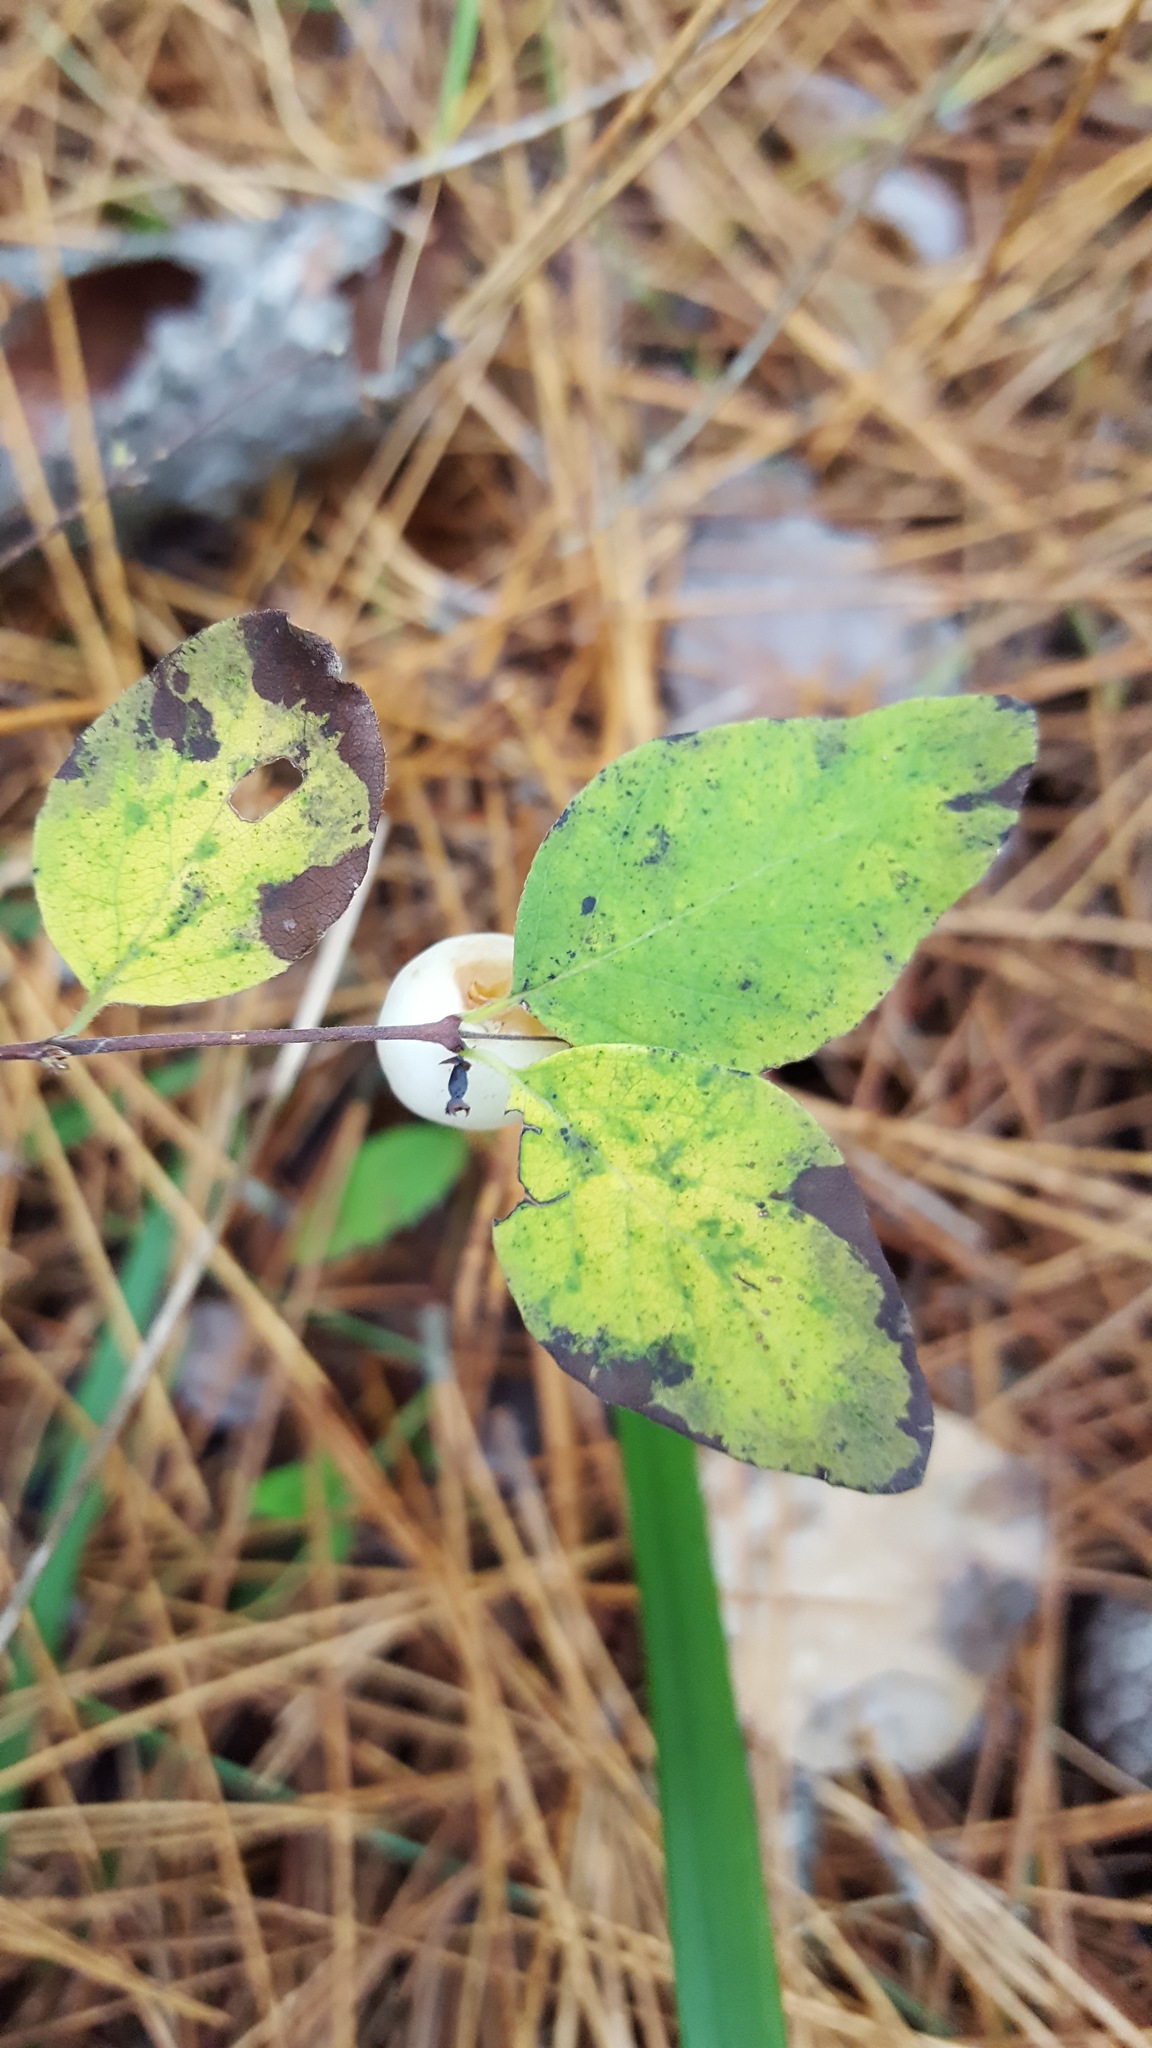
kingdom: Plantae
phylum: Tracheophyta
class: Magnoliopsida
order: Dipsacales
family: Caprifoliaceae
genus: Symphoricarpos
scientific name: Symphoricarpos albus
